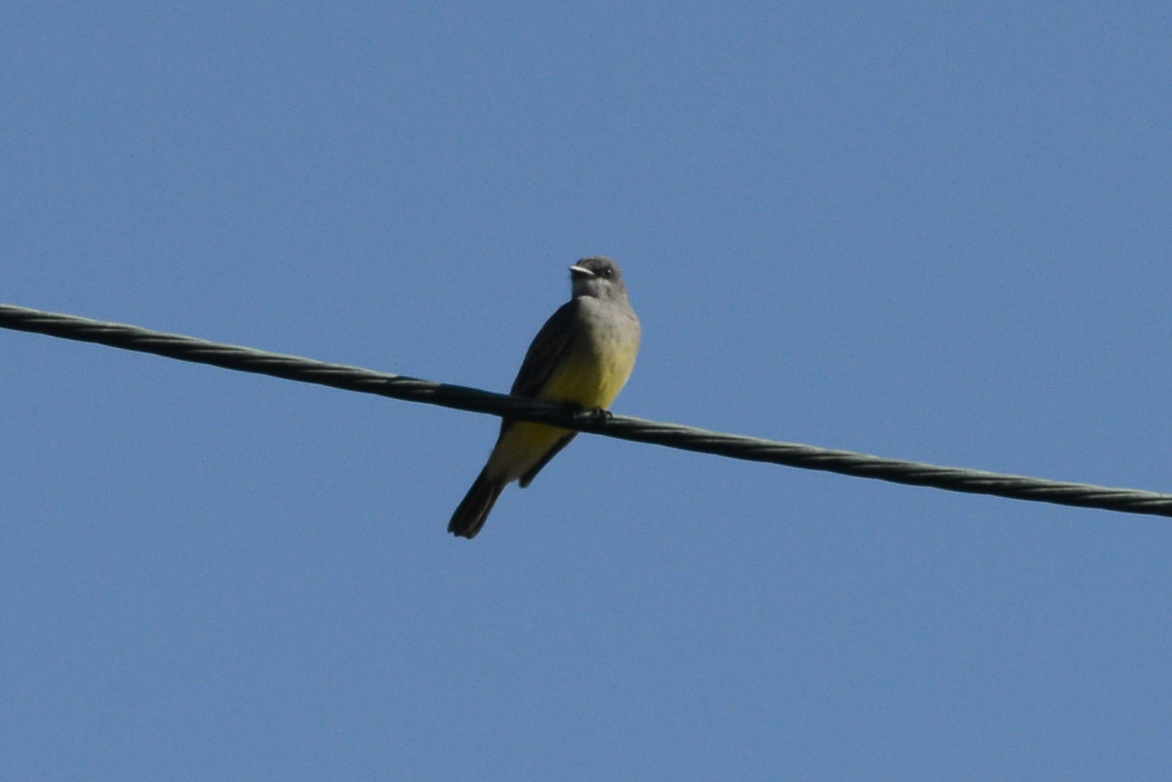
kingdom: Animalia
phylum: Chordata
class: Aves
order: Passeriformes
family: Tyrannidae
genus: Tyrannus
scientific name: Tyrannus vociferans
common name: Cassin's kingbird
